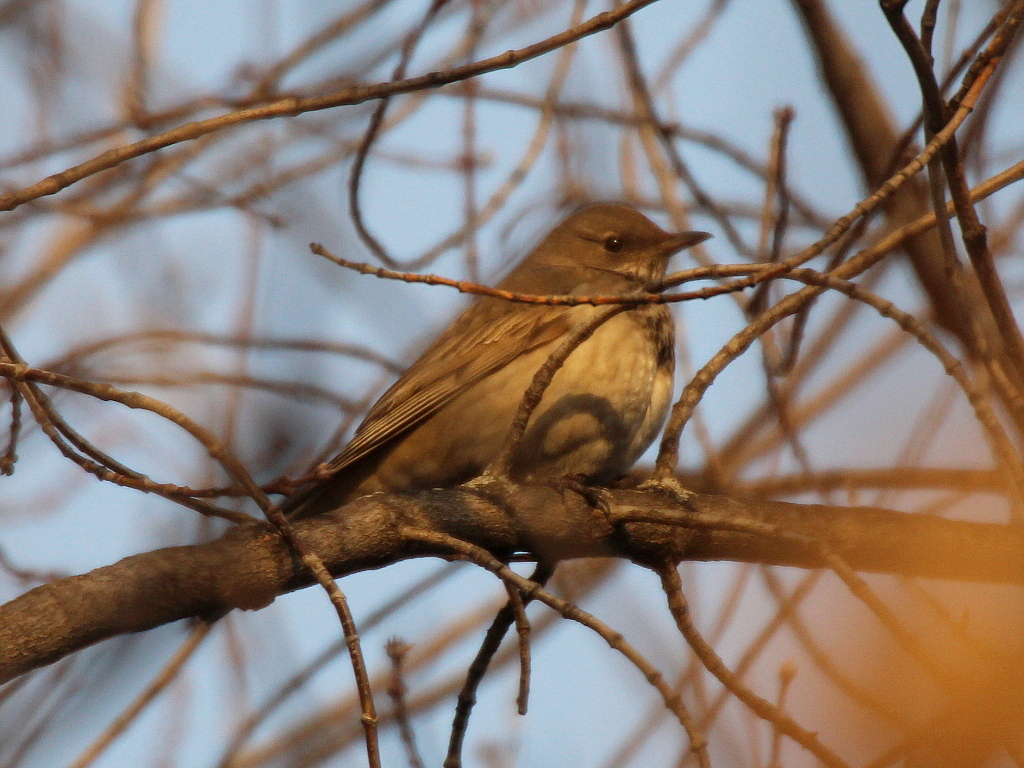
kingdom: Animalia
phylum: Chordata
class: Aves
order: Passeriformes
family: Turdidae
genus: Turdus
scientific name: Turdus atrogularis
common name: Black-throated thrush
